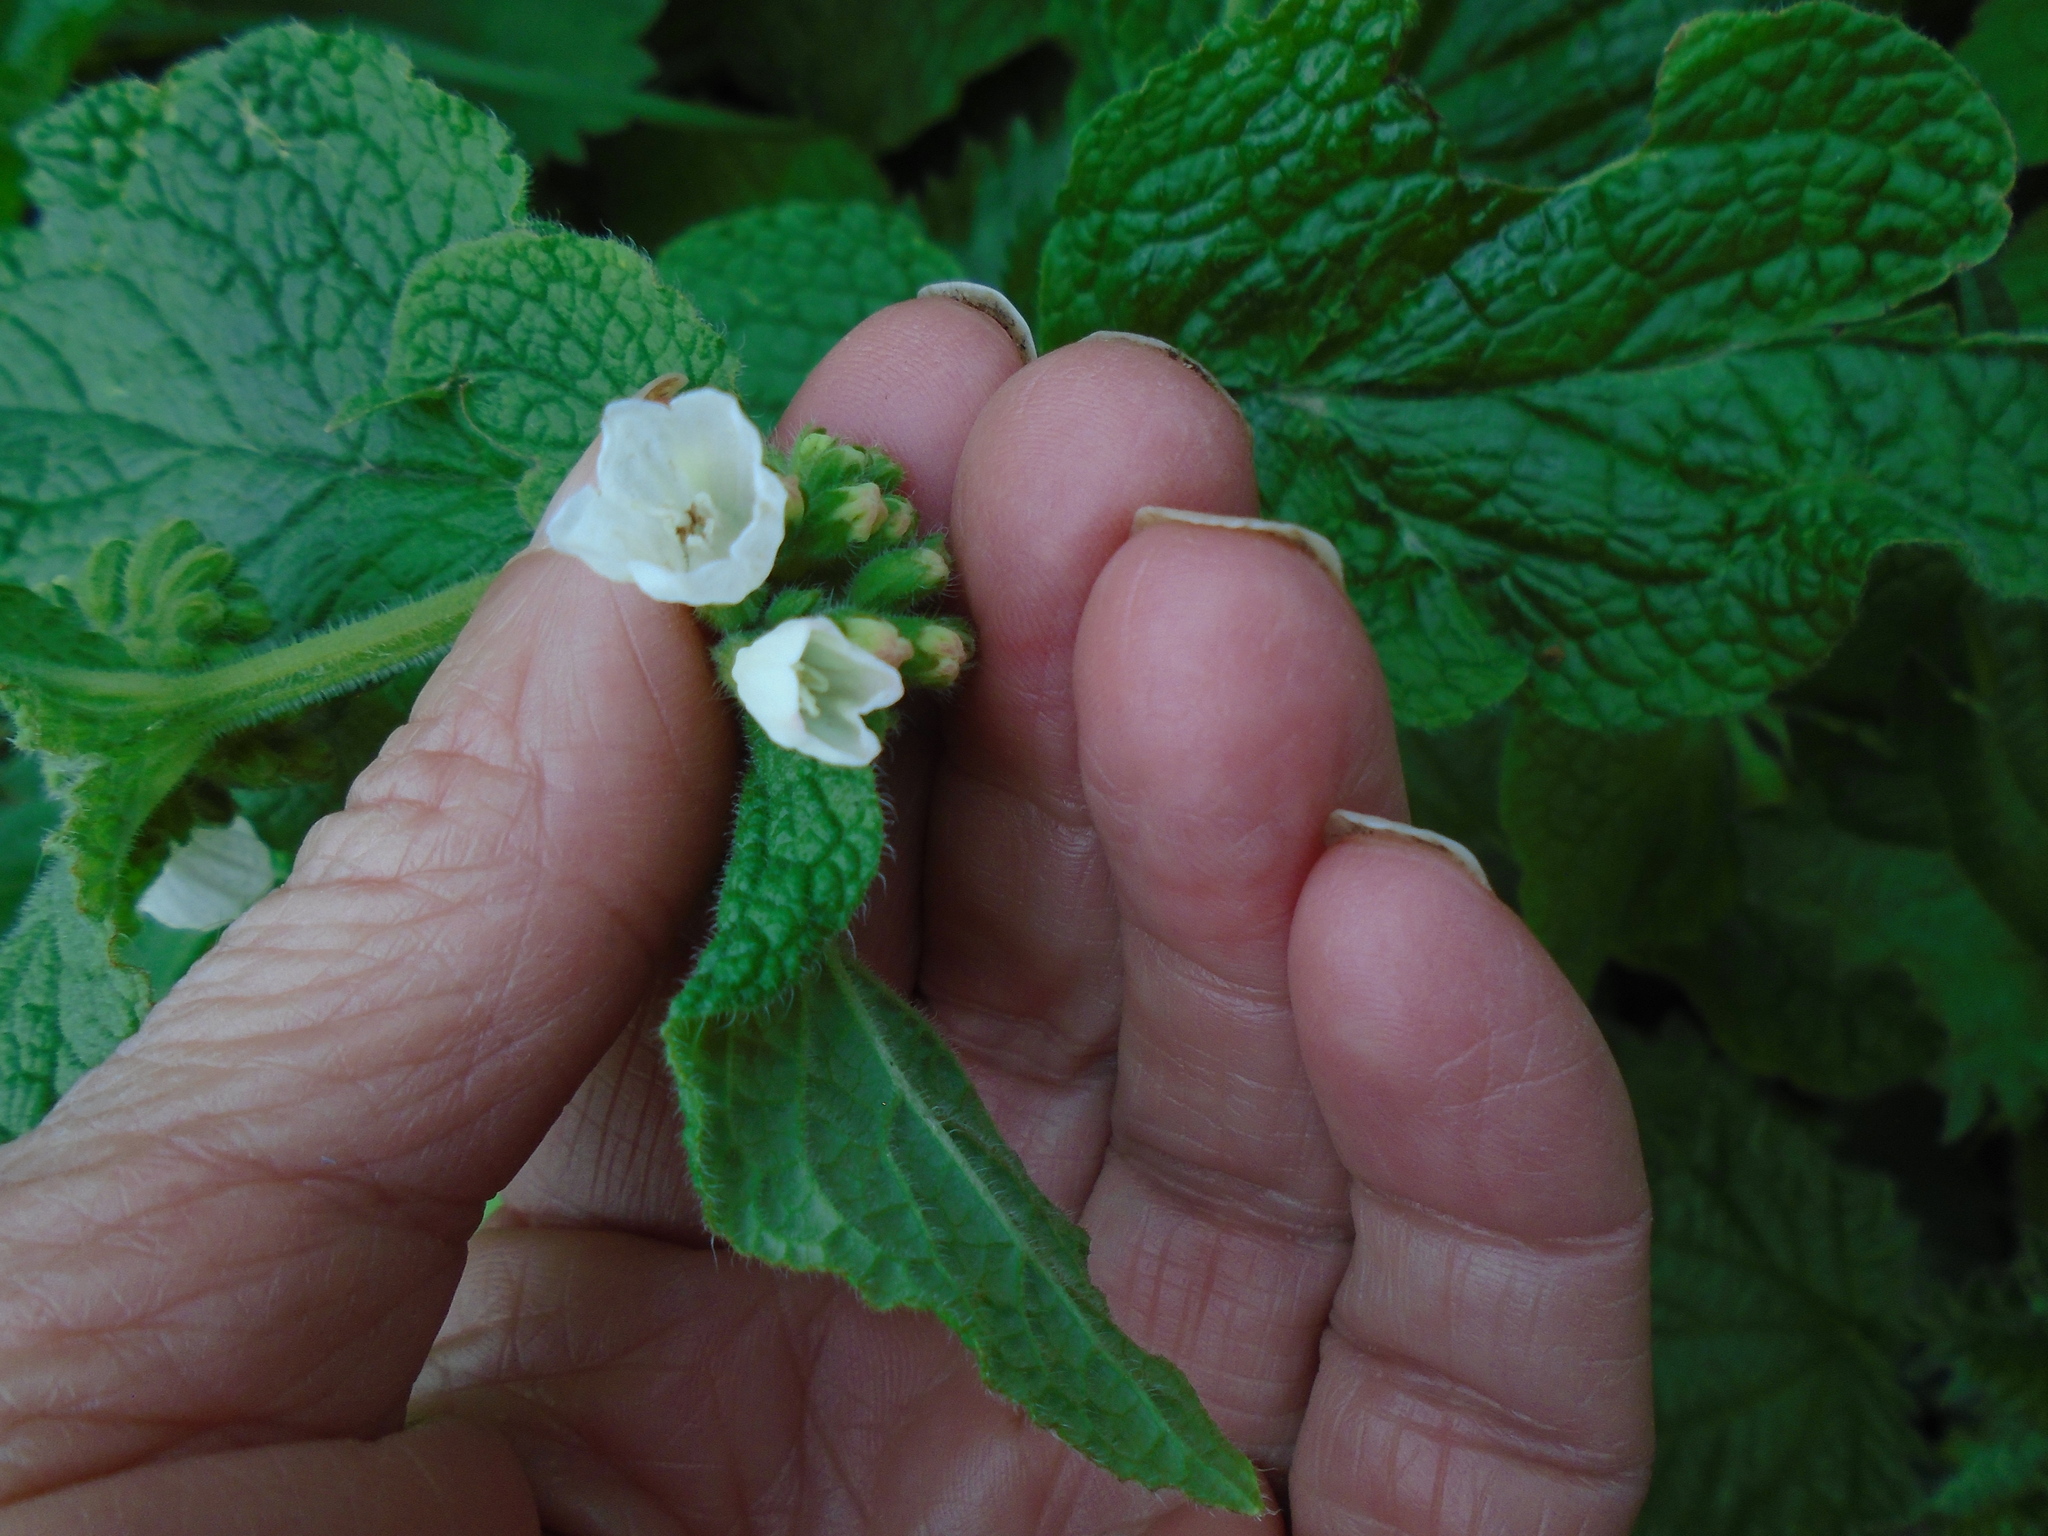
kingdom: Plantae
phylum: Tracheophyta
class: Magnoliopsida
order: Boraginales
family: Boraginaceae
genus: Symphytum
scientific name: Symphytum orientale
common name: White comfrey
